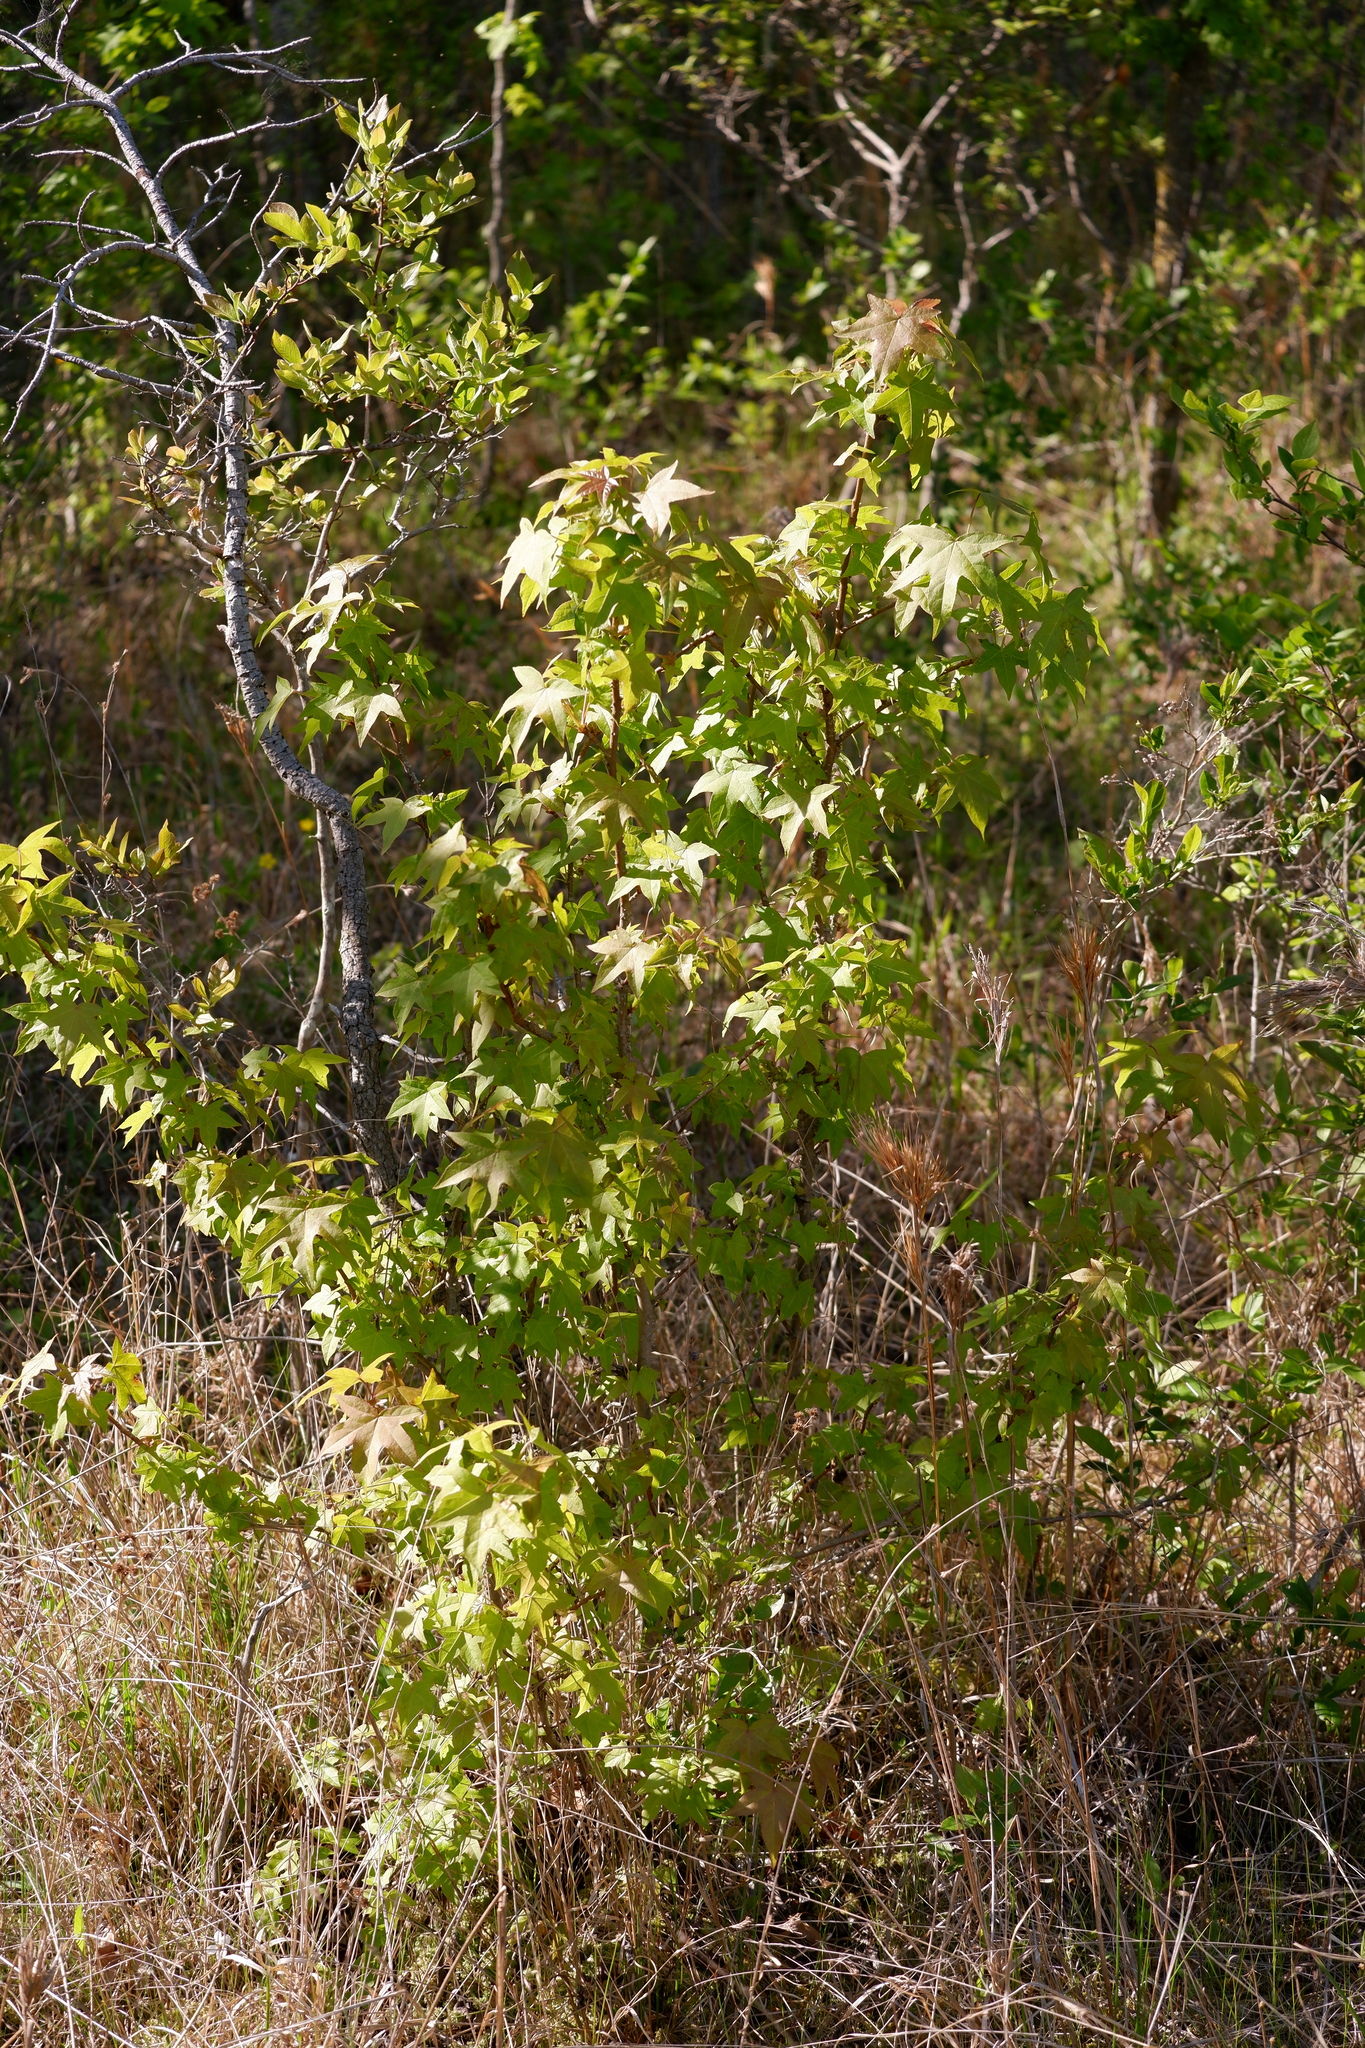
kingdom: Plantae
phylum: Tracheophyta
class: Magnoliopsida
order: Saxifragales
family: Altingiaceae
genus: Liquidambar
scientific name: Liquidambar styraciflua
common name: Sweet gum
